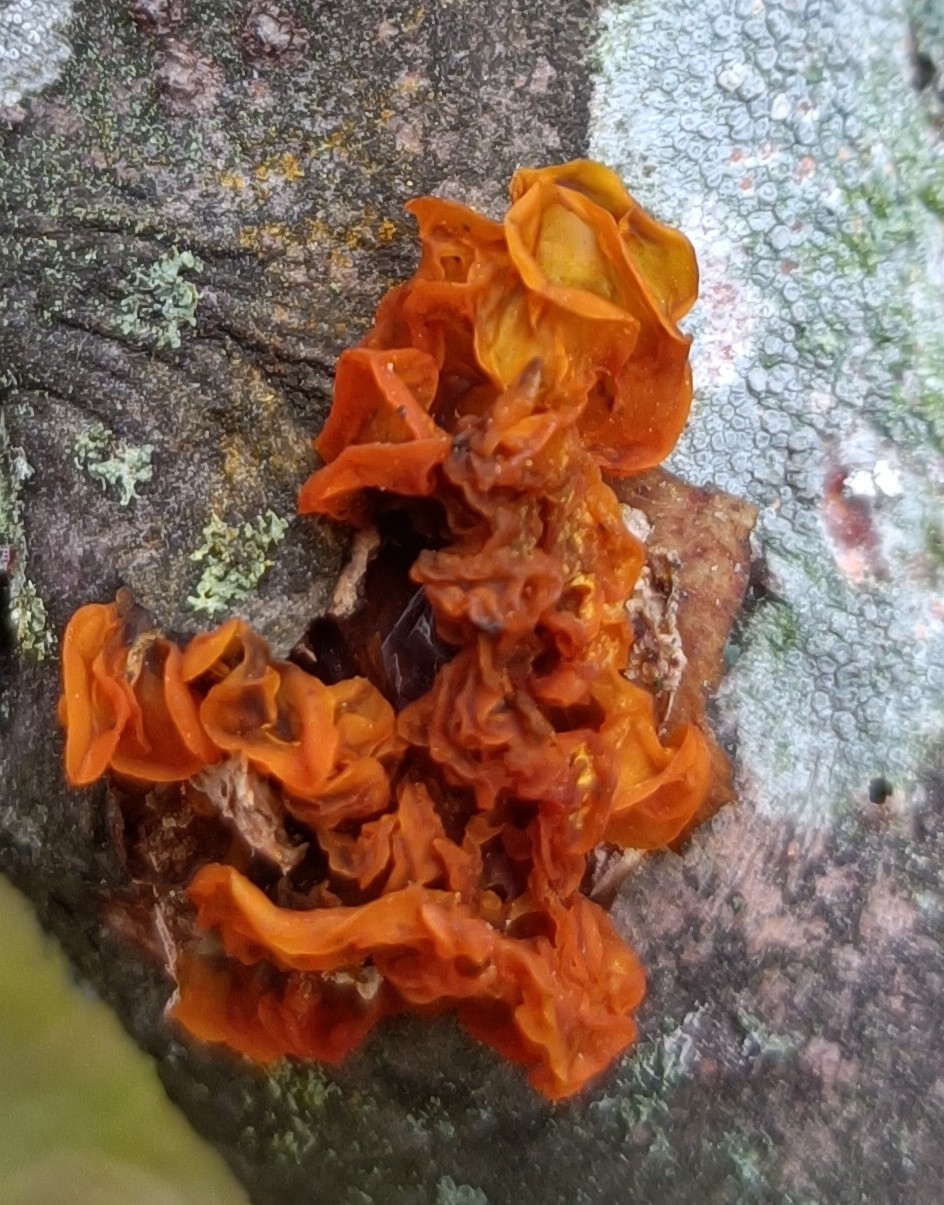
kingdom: Fungi
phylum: Basidiomycota
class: Tremellomycetes
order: Tremellales
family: Tremellaceae
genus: Tremella
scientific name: Tremella mesenterica
